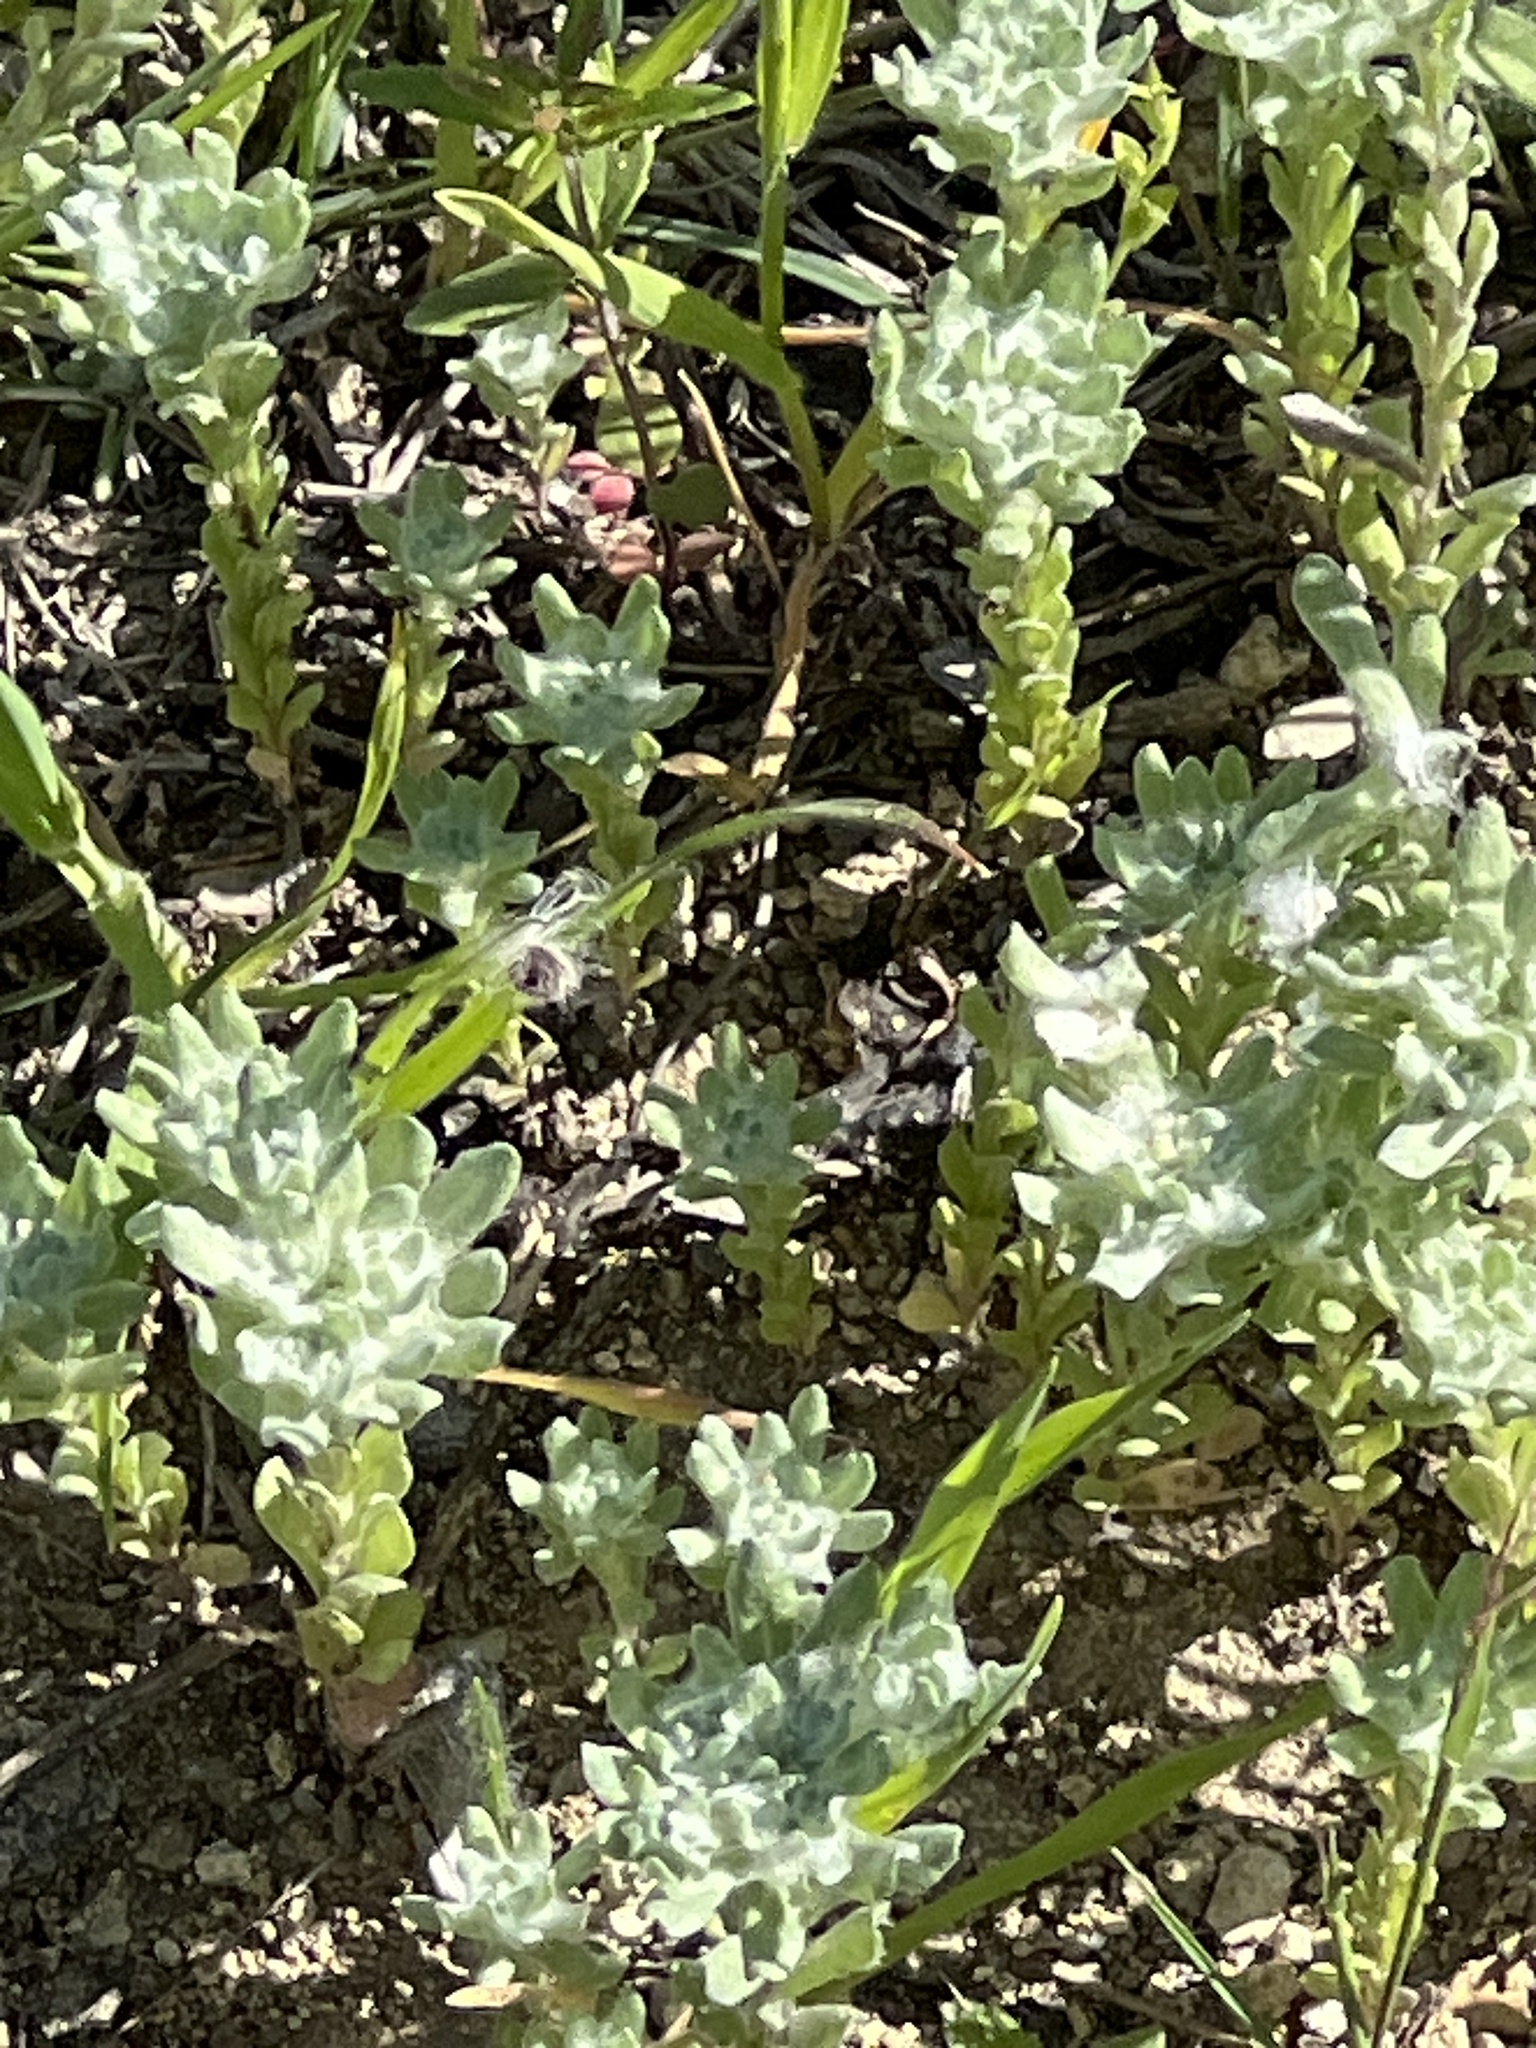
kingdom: Plantae
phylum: Tracheophyta
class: Magnoliopsida
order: Asterales
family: Asteraceae
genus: Diaperia
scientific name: Diaperia prolifera
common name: Big-head rabbit-tobacco
